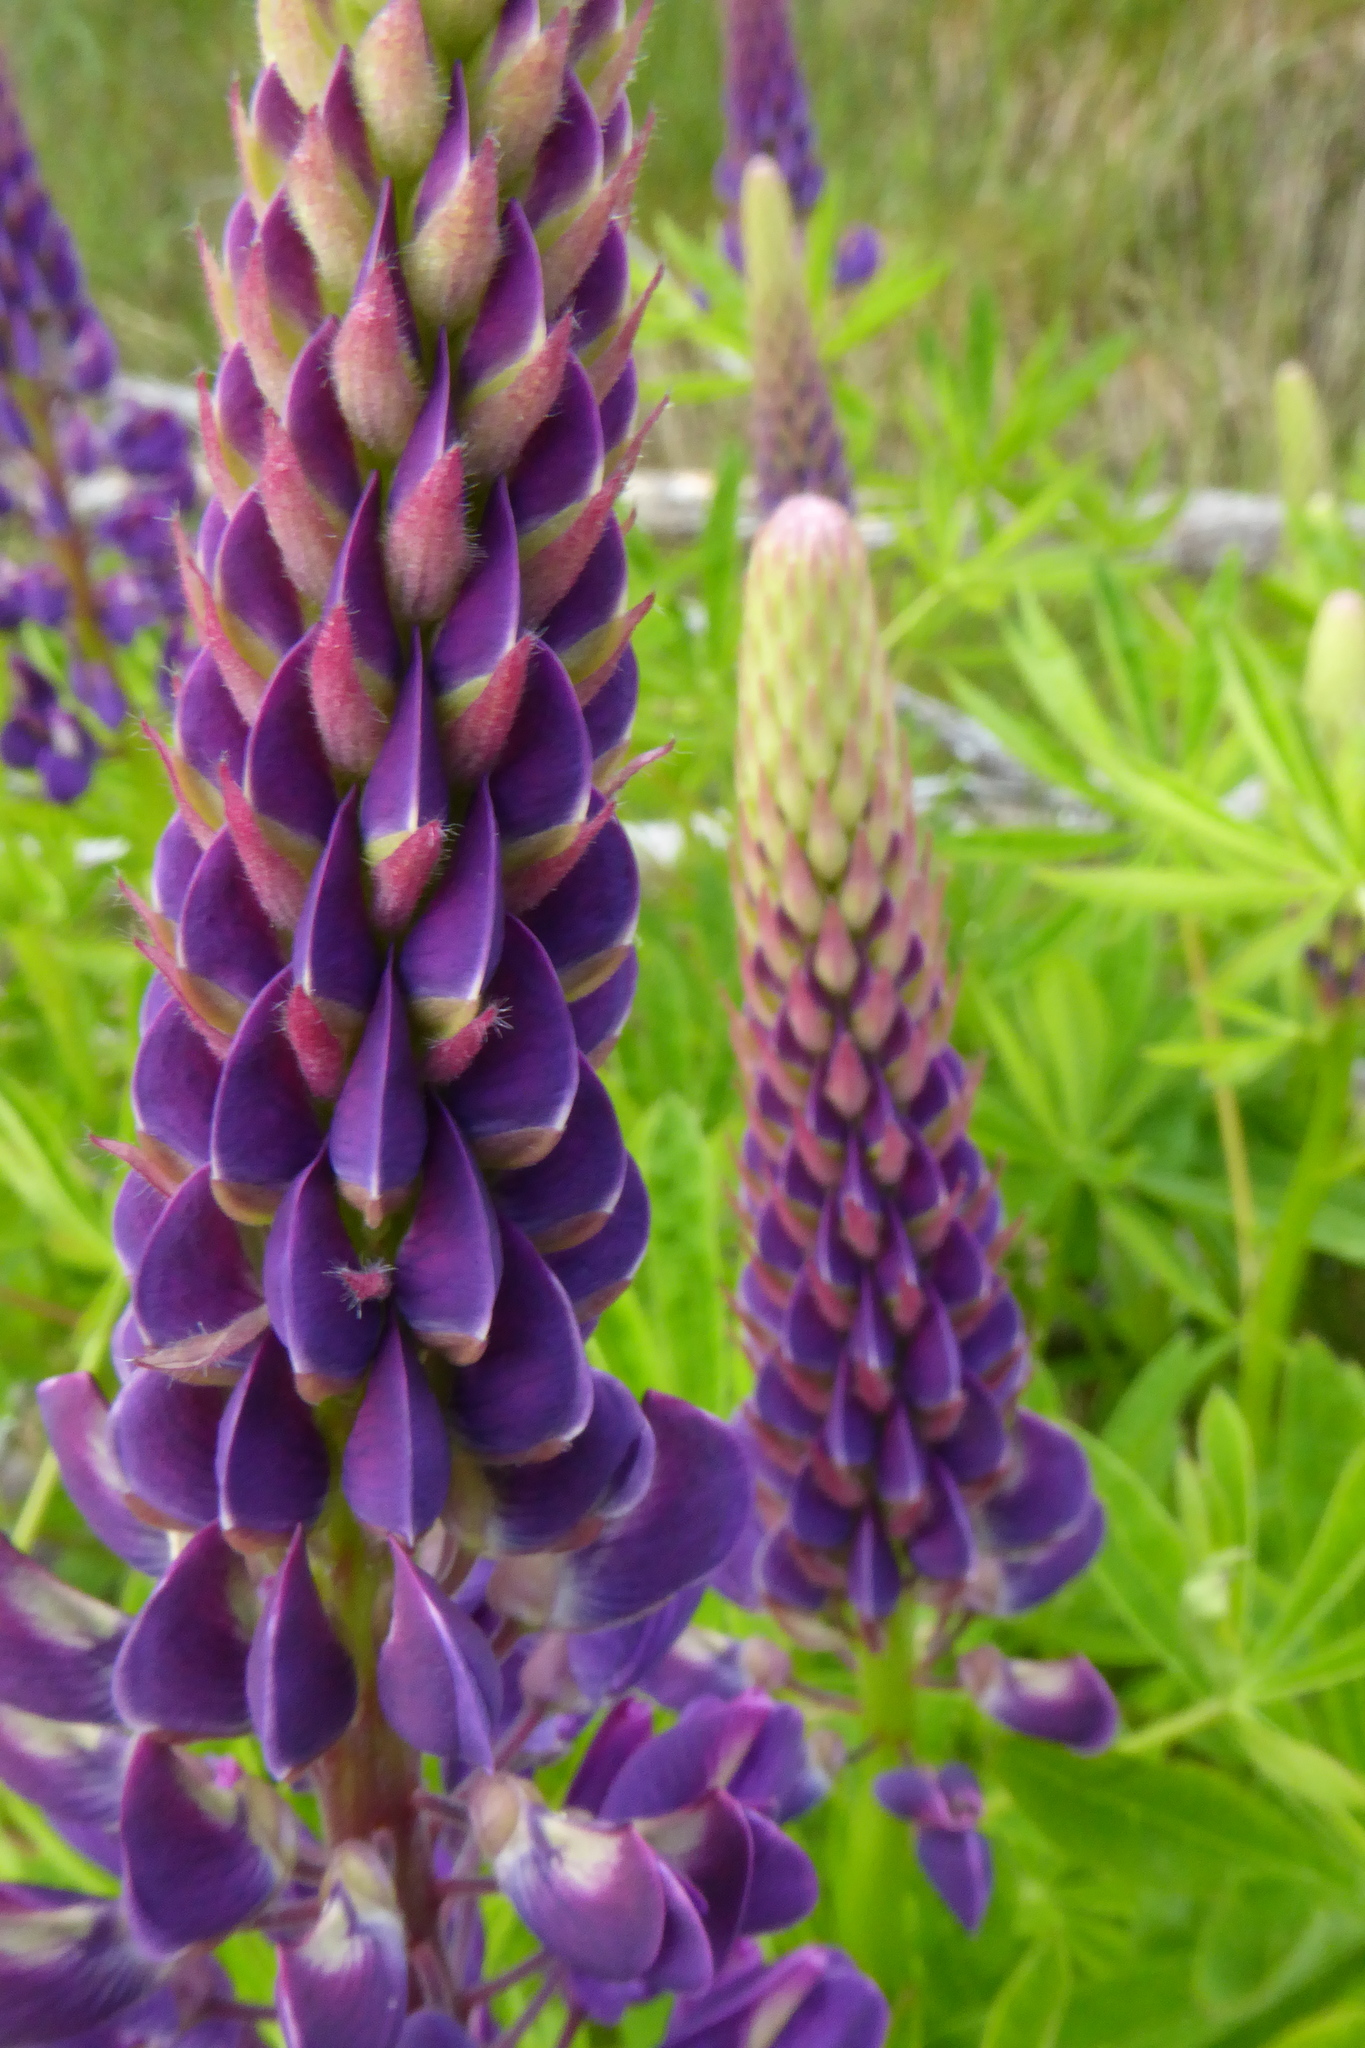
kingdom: Plantae
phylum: Tracheophyta
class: Magnoliopsida
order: Fabales
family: Fabaceae
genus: Lupinus
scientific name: Lupinus polyphyllus
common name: Garden lupin
